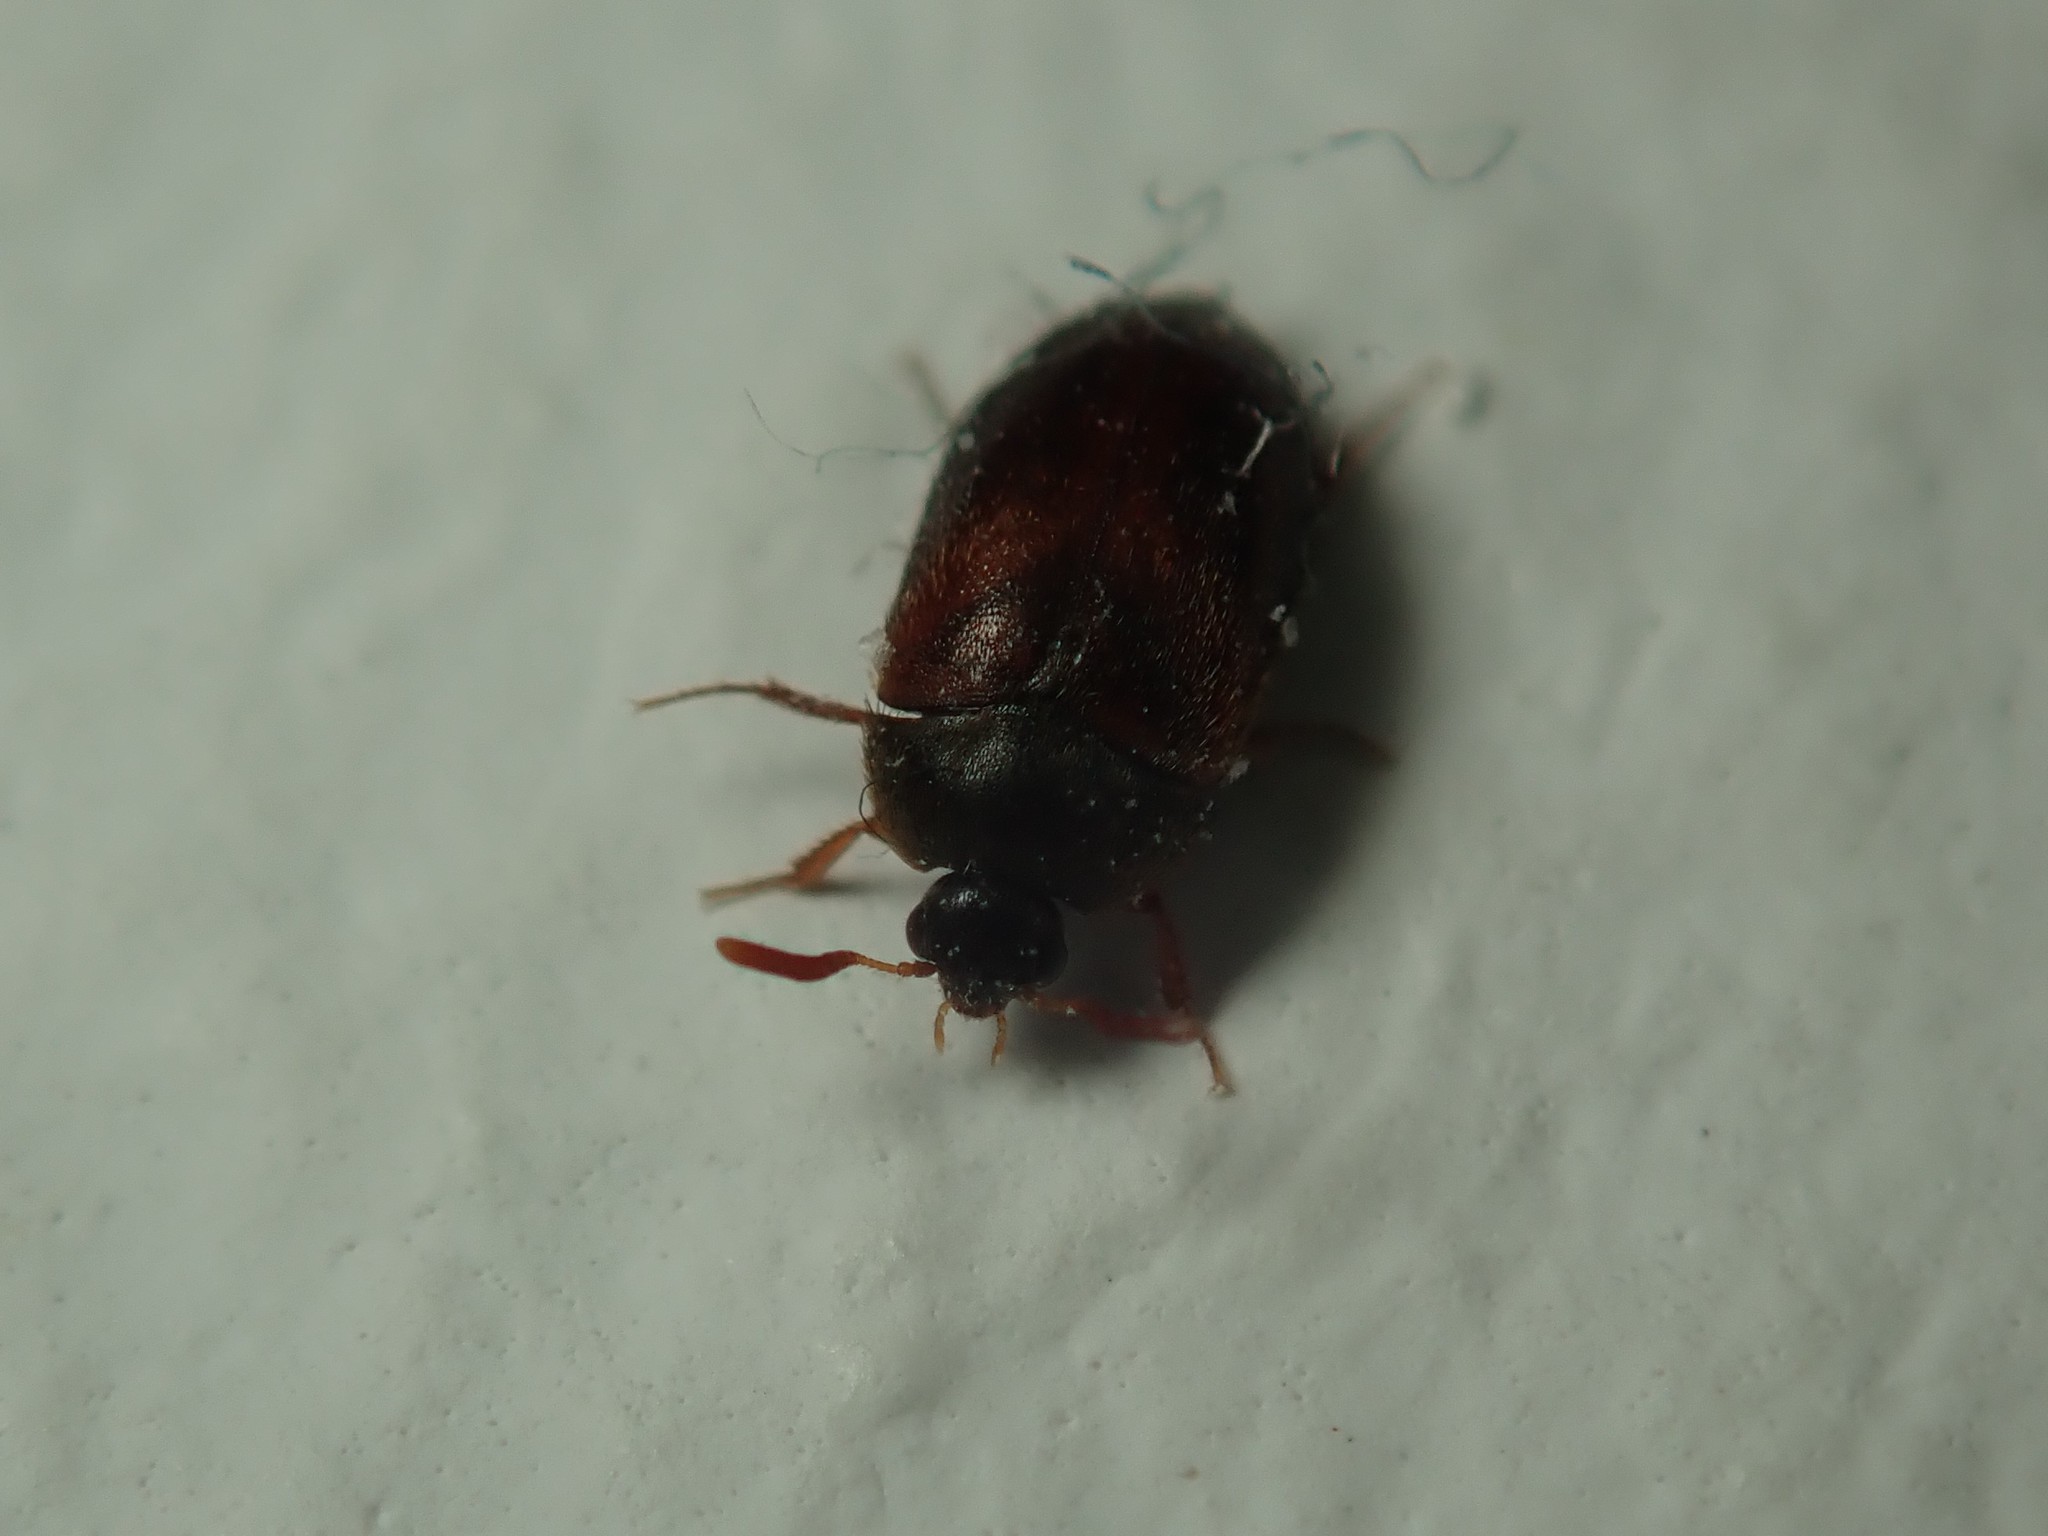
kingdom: Animalia
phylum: Arthropoda
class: Insecta
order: Coleoptera
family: Dermestidae
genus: Attagenus
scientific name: Attagenus smirnovi
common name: Brown carpet beetle
